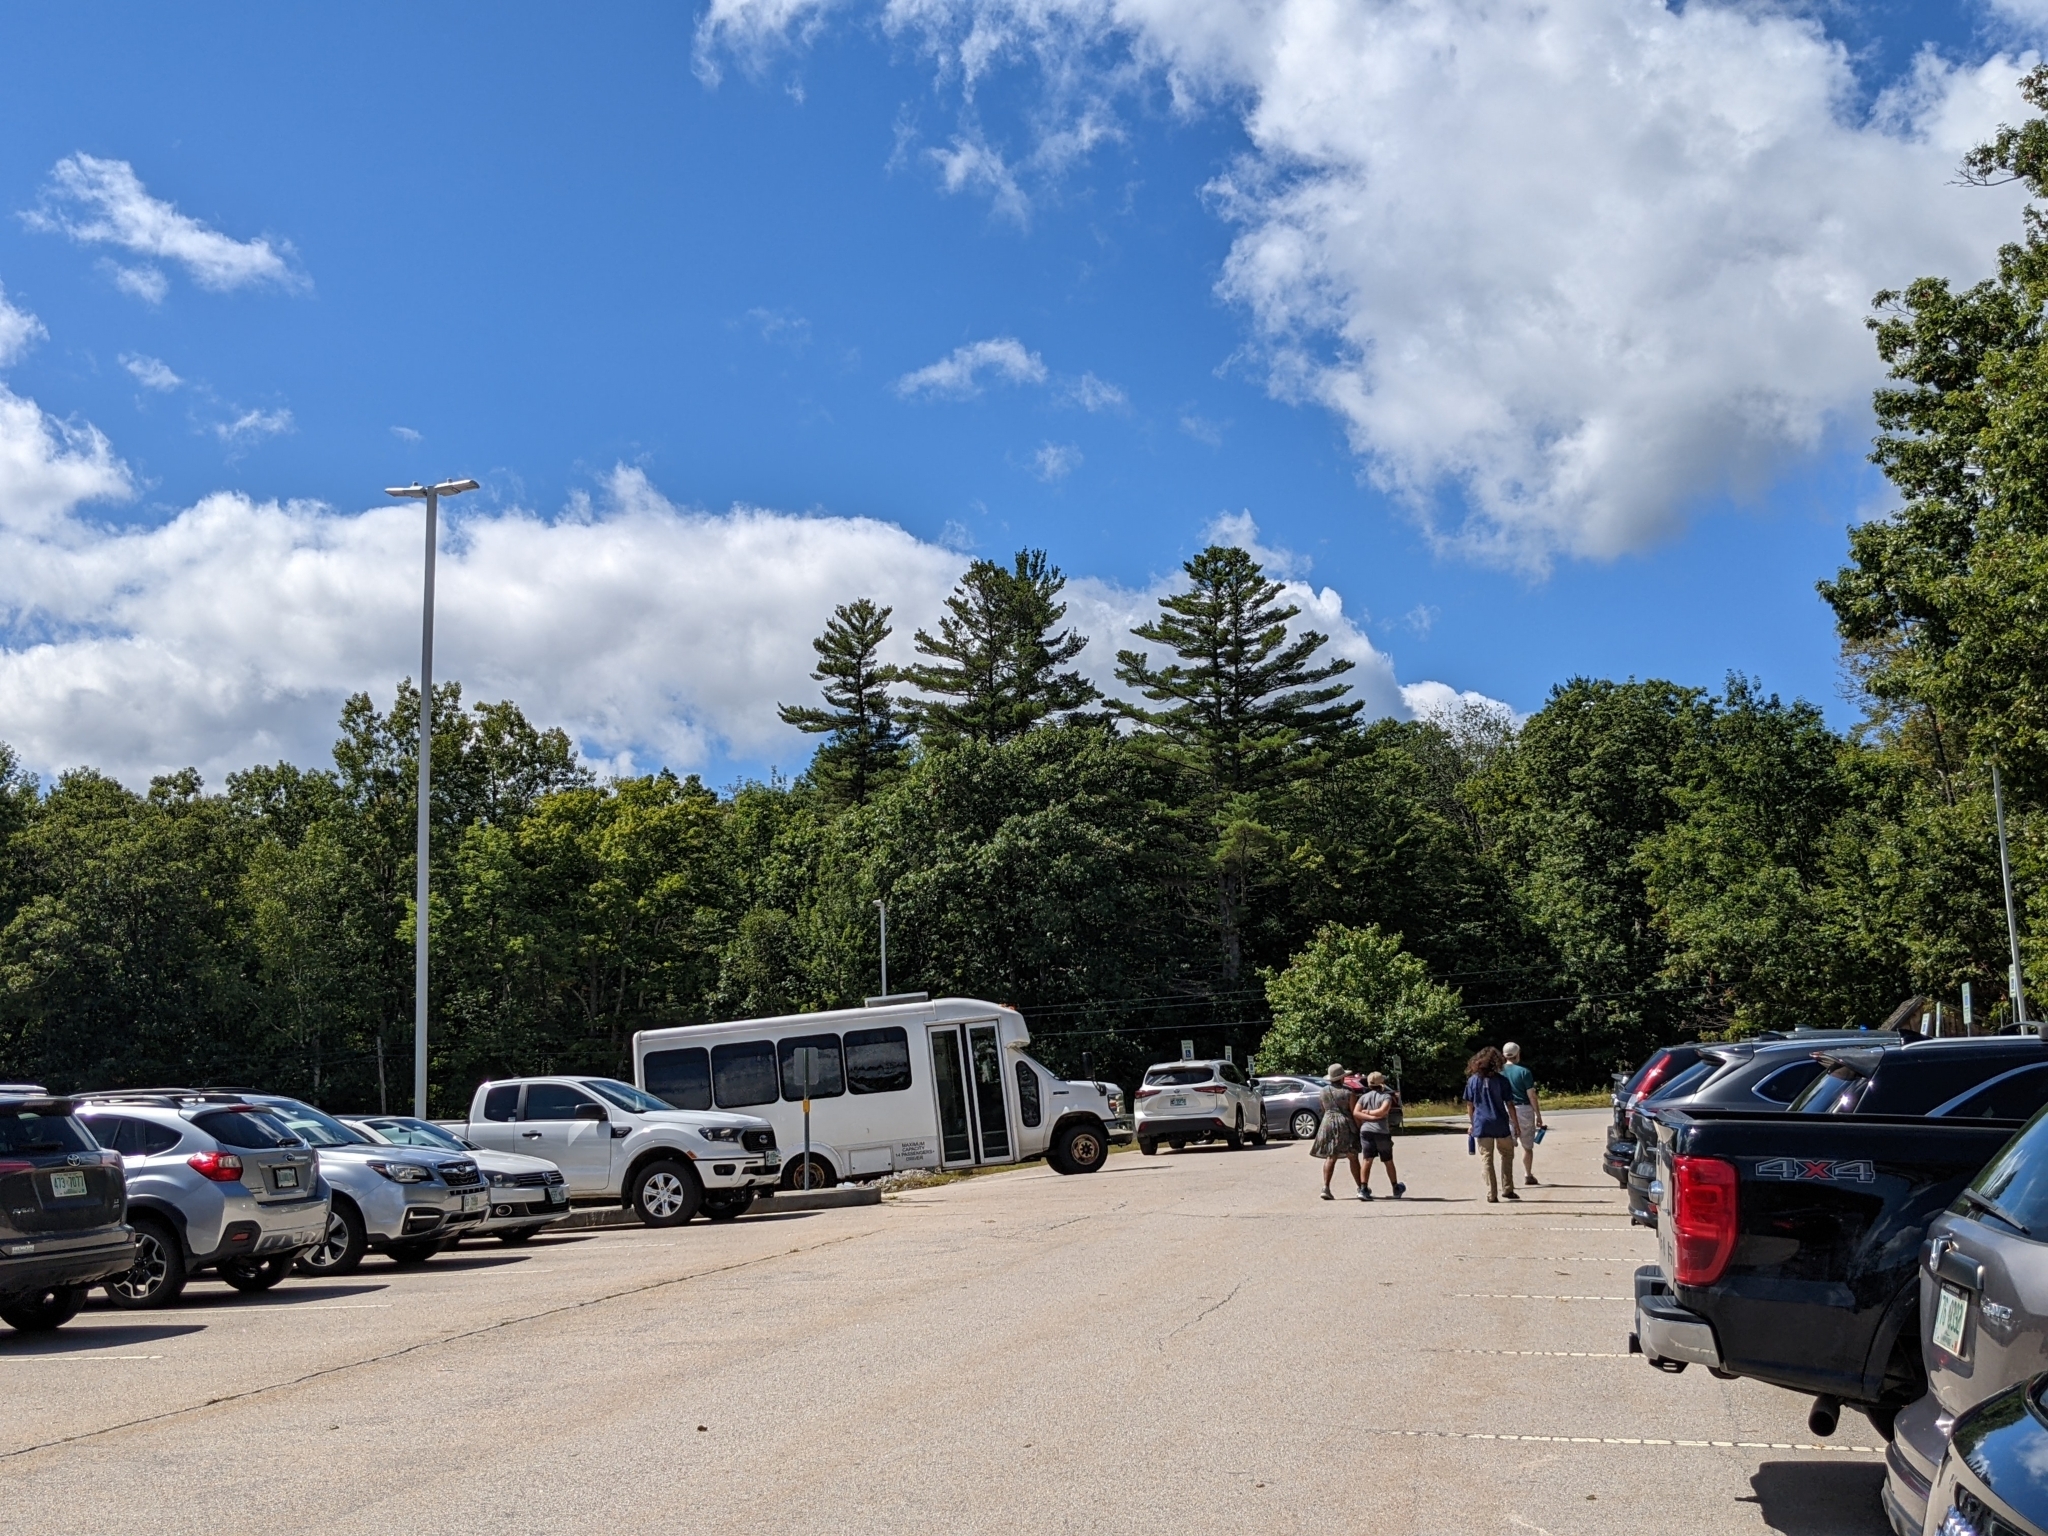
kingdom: Plantae
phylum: Tracheophyta
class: Pinopsida
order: Pinales
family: Pinaceae
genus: Pinus
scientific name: Pinus strobus
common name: Weymouth pine
